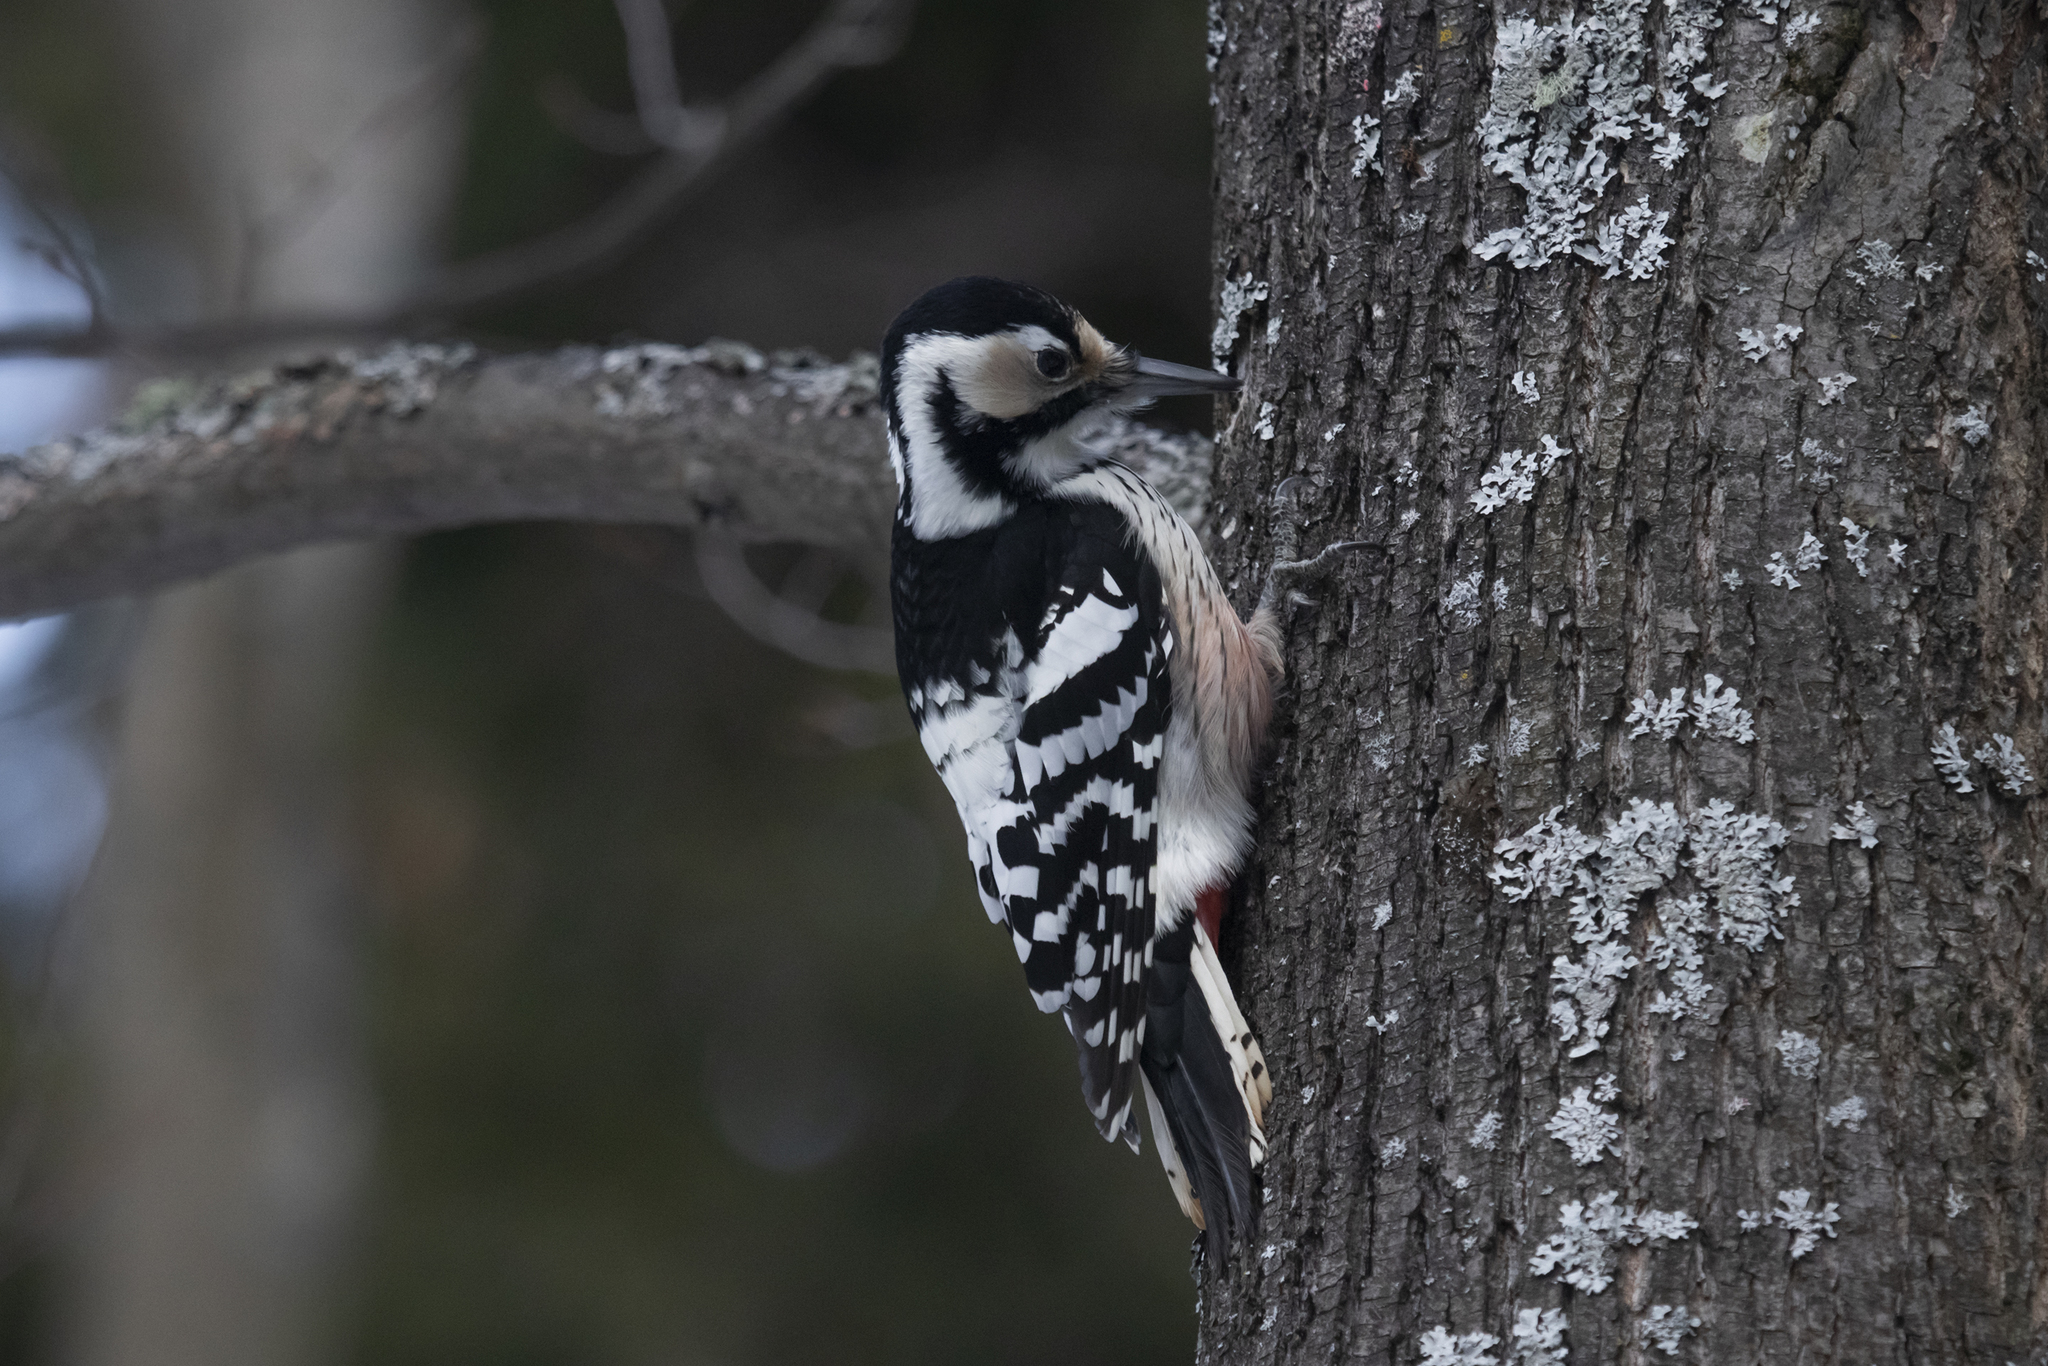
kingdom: Animalia
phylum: Chordata
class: Aves
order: Piciformes
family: Picidae
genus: Dendrocopos
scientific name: Dendrocopos leucotos
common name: White-backed woodpecker
